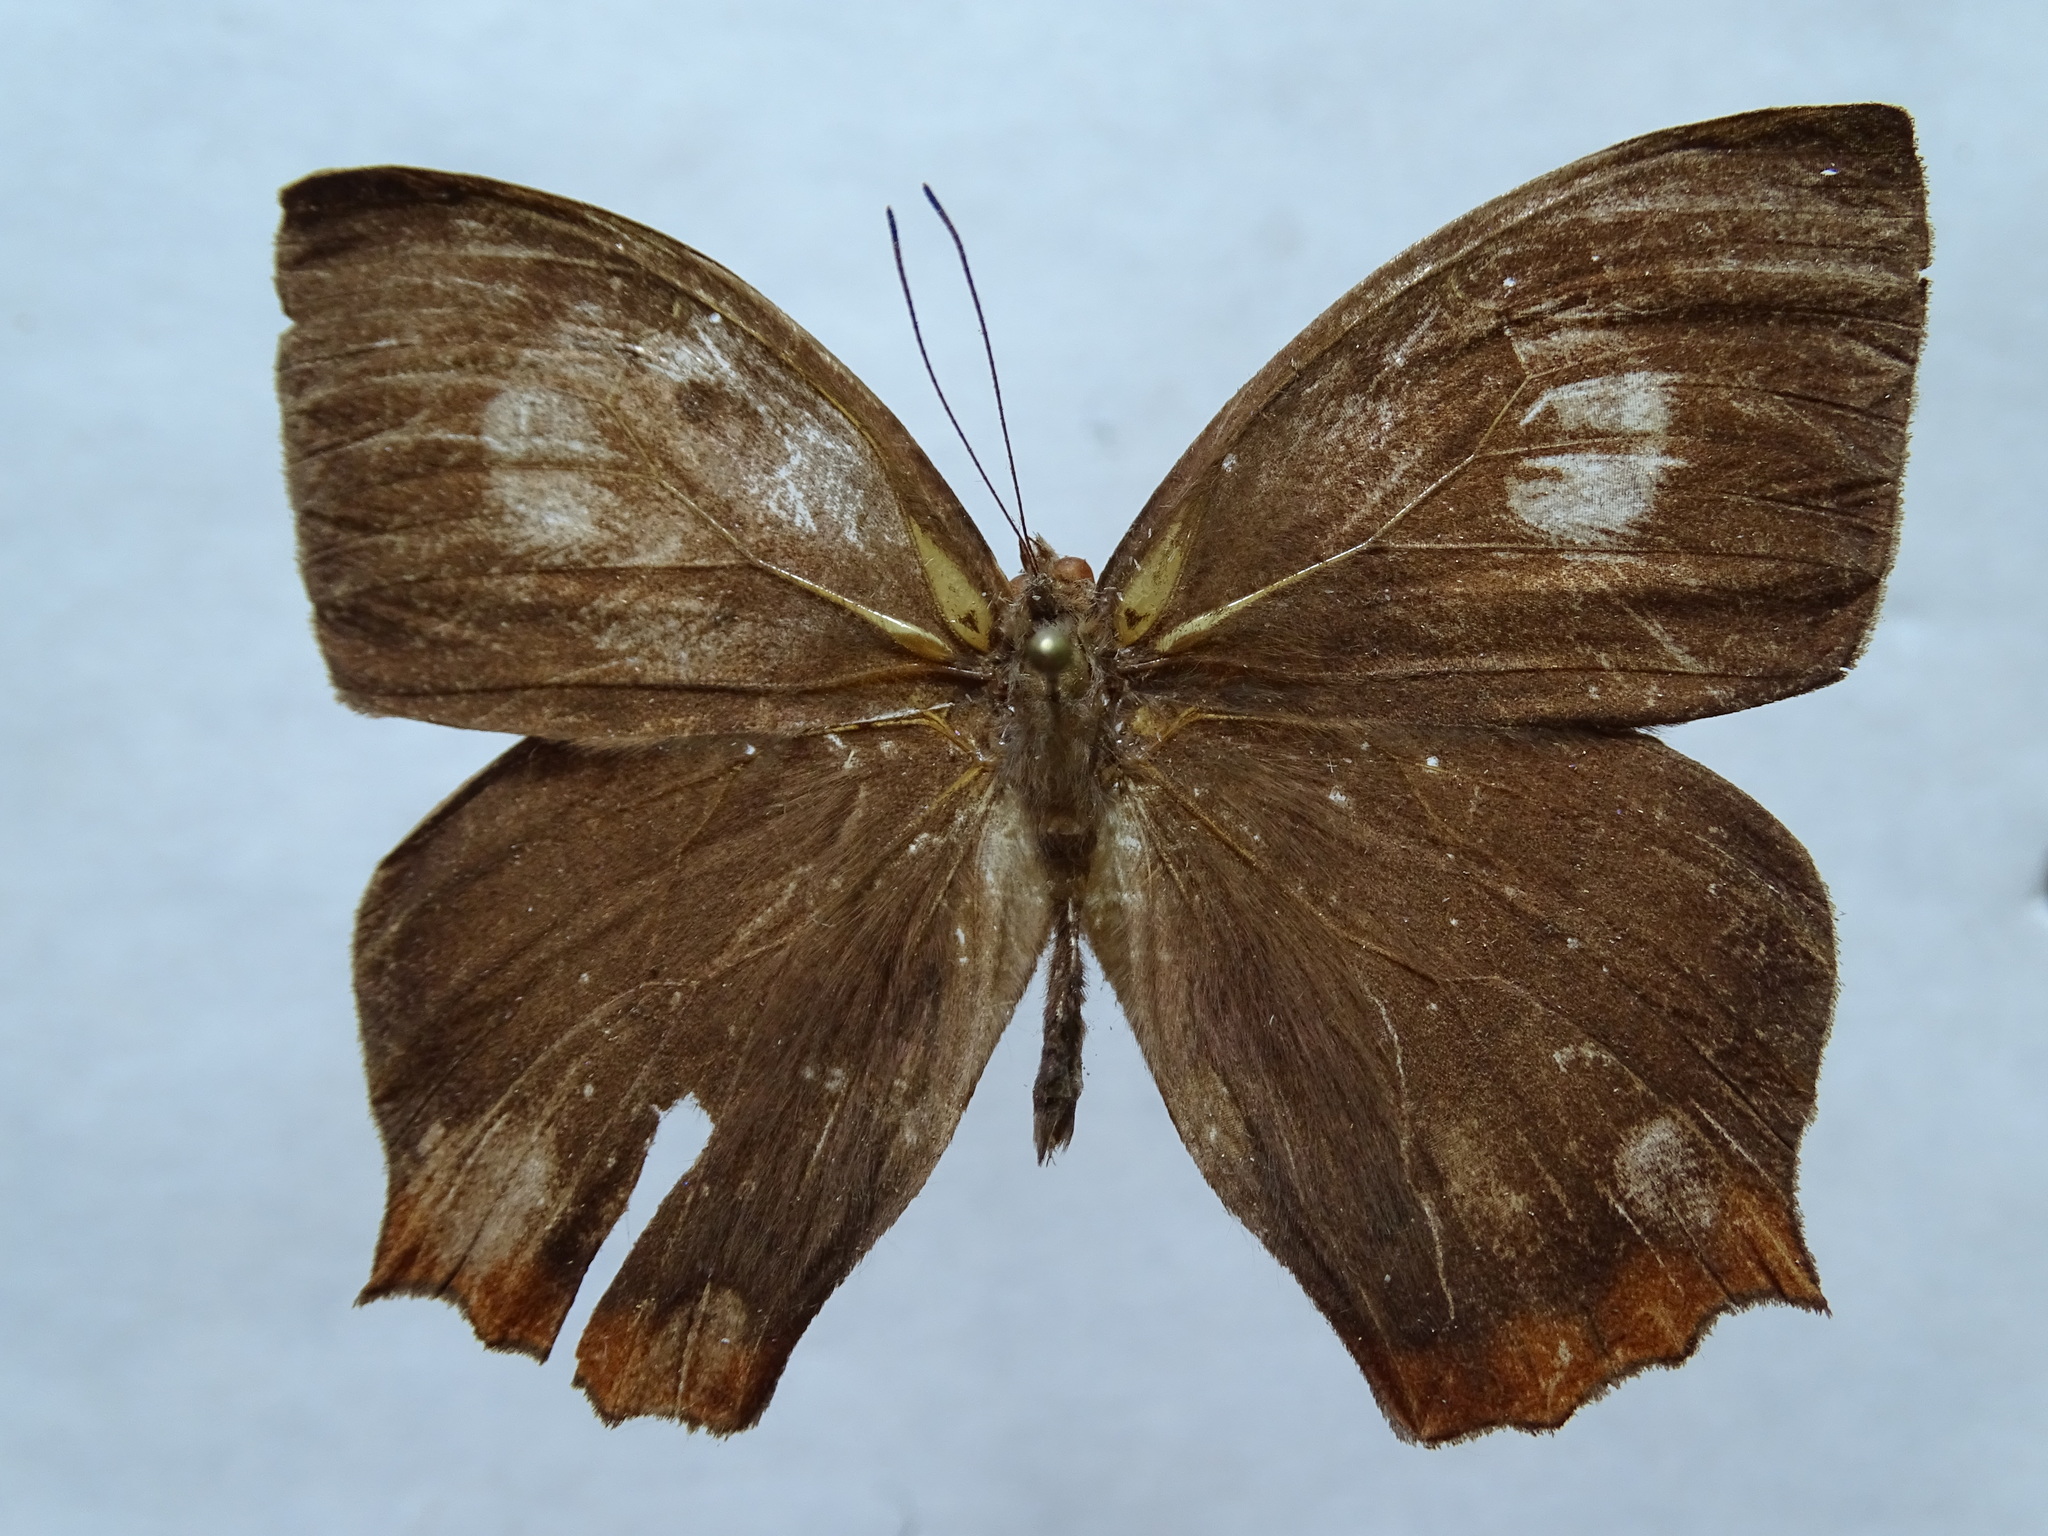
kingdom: Animalia
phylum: Arthropoda
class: Insecta
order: Lepidoptera
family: Nymphalidae
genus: Taygetis
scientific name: Taygetis virgilia
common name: Stub-tailed satyr
